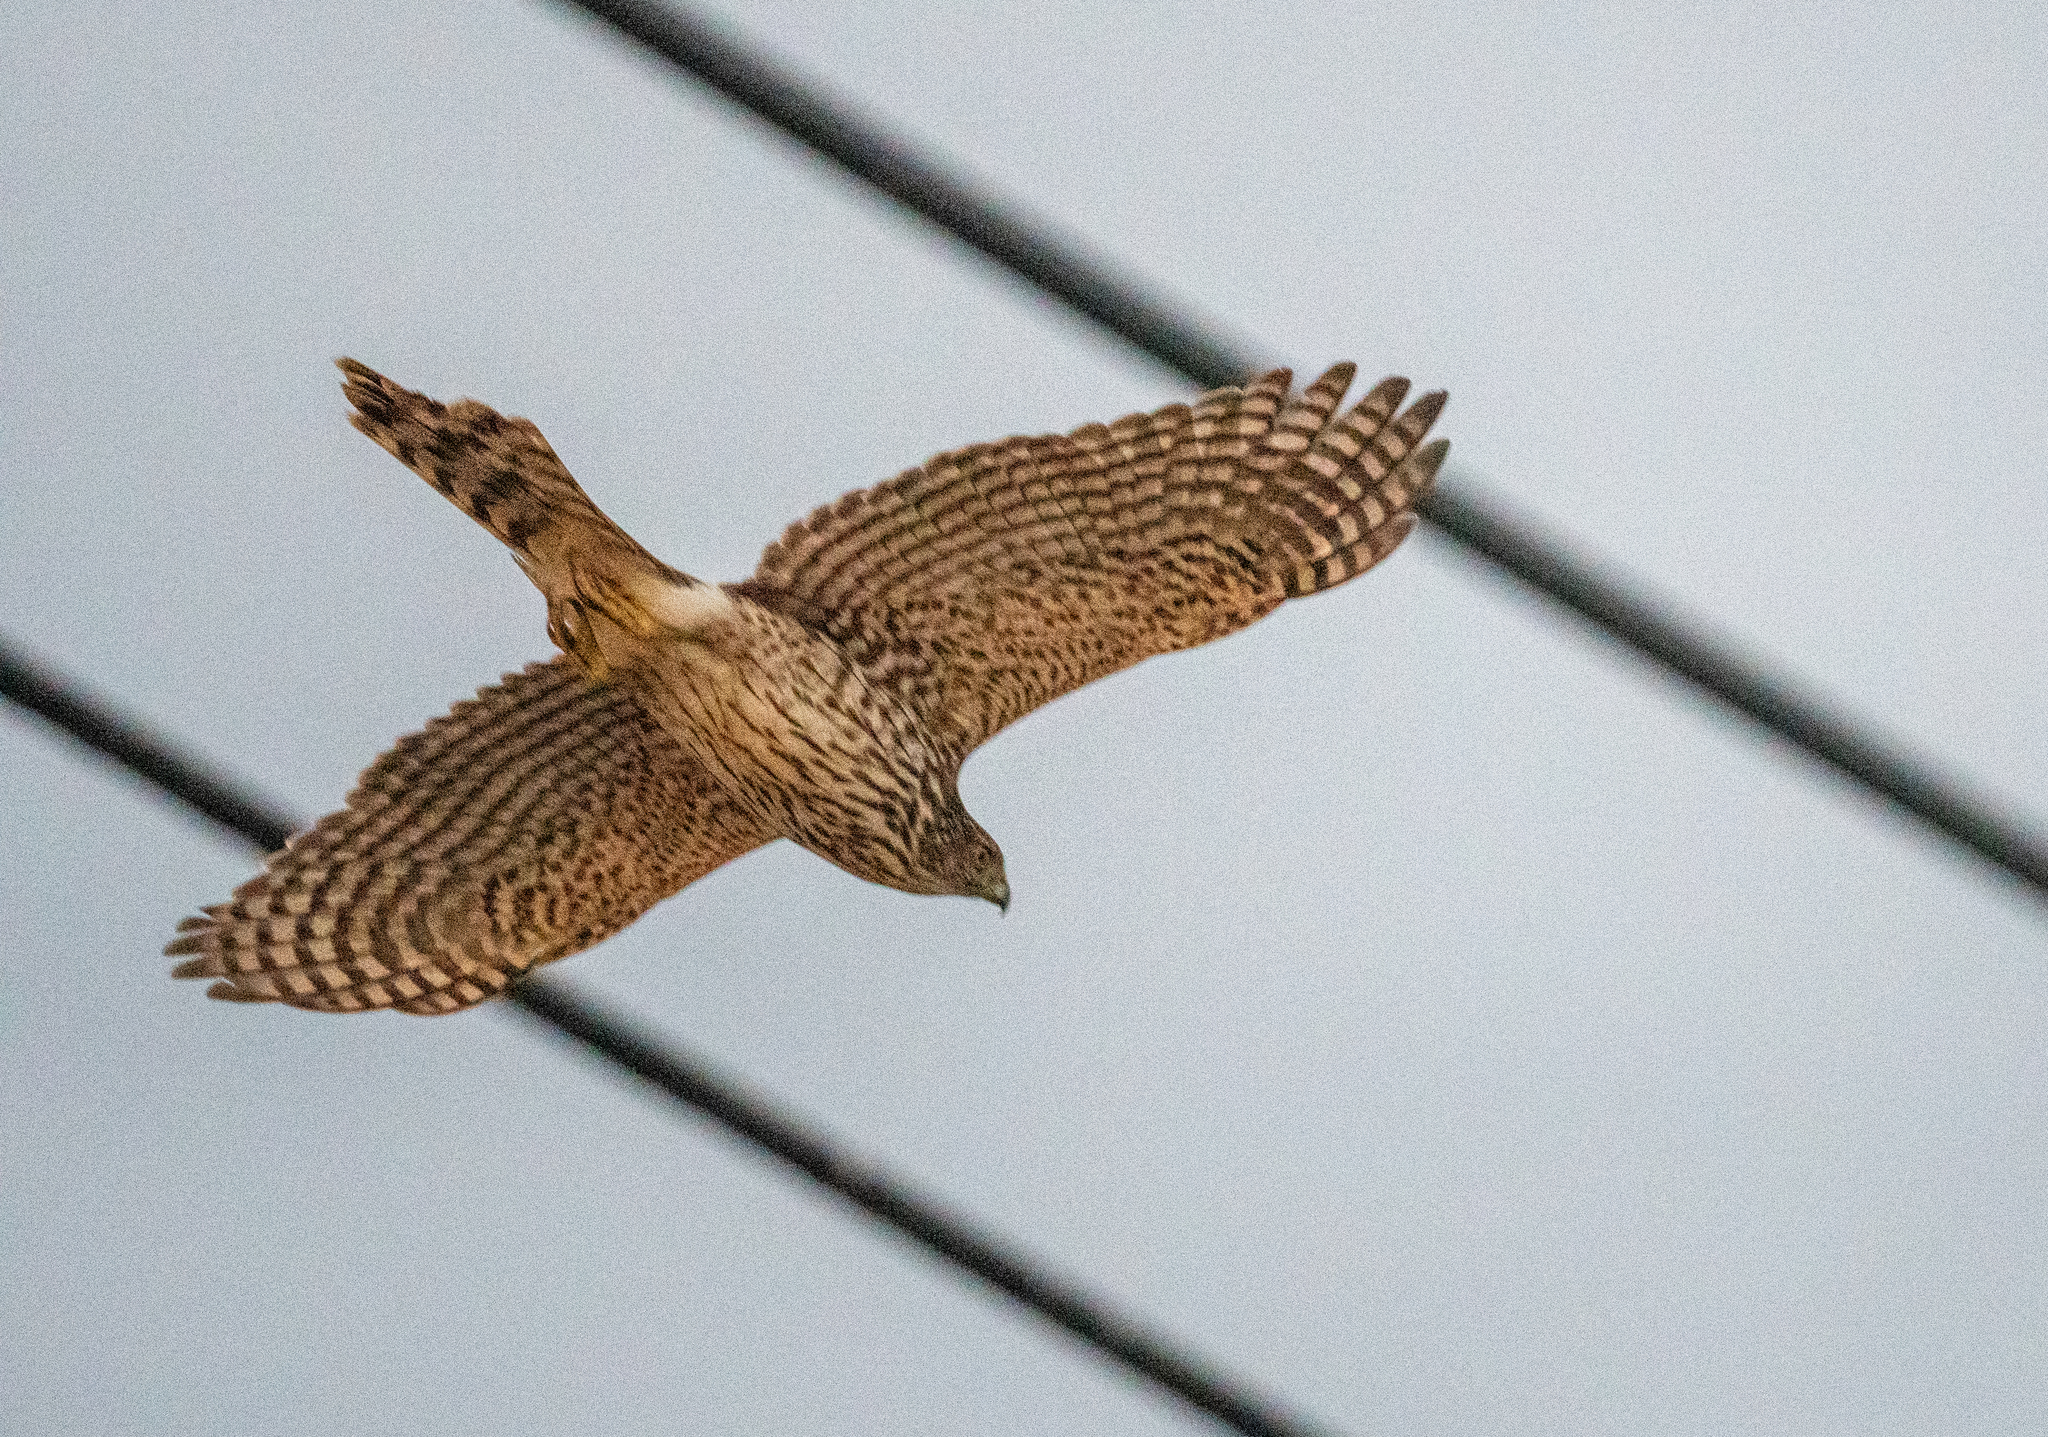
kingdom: Animalia
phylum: Chordata
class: Aves
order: Accipitriformes
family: Accipitridae
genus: Accipiter
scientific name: Accipiter cooperii
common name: Cooper's hawk
